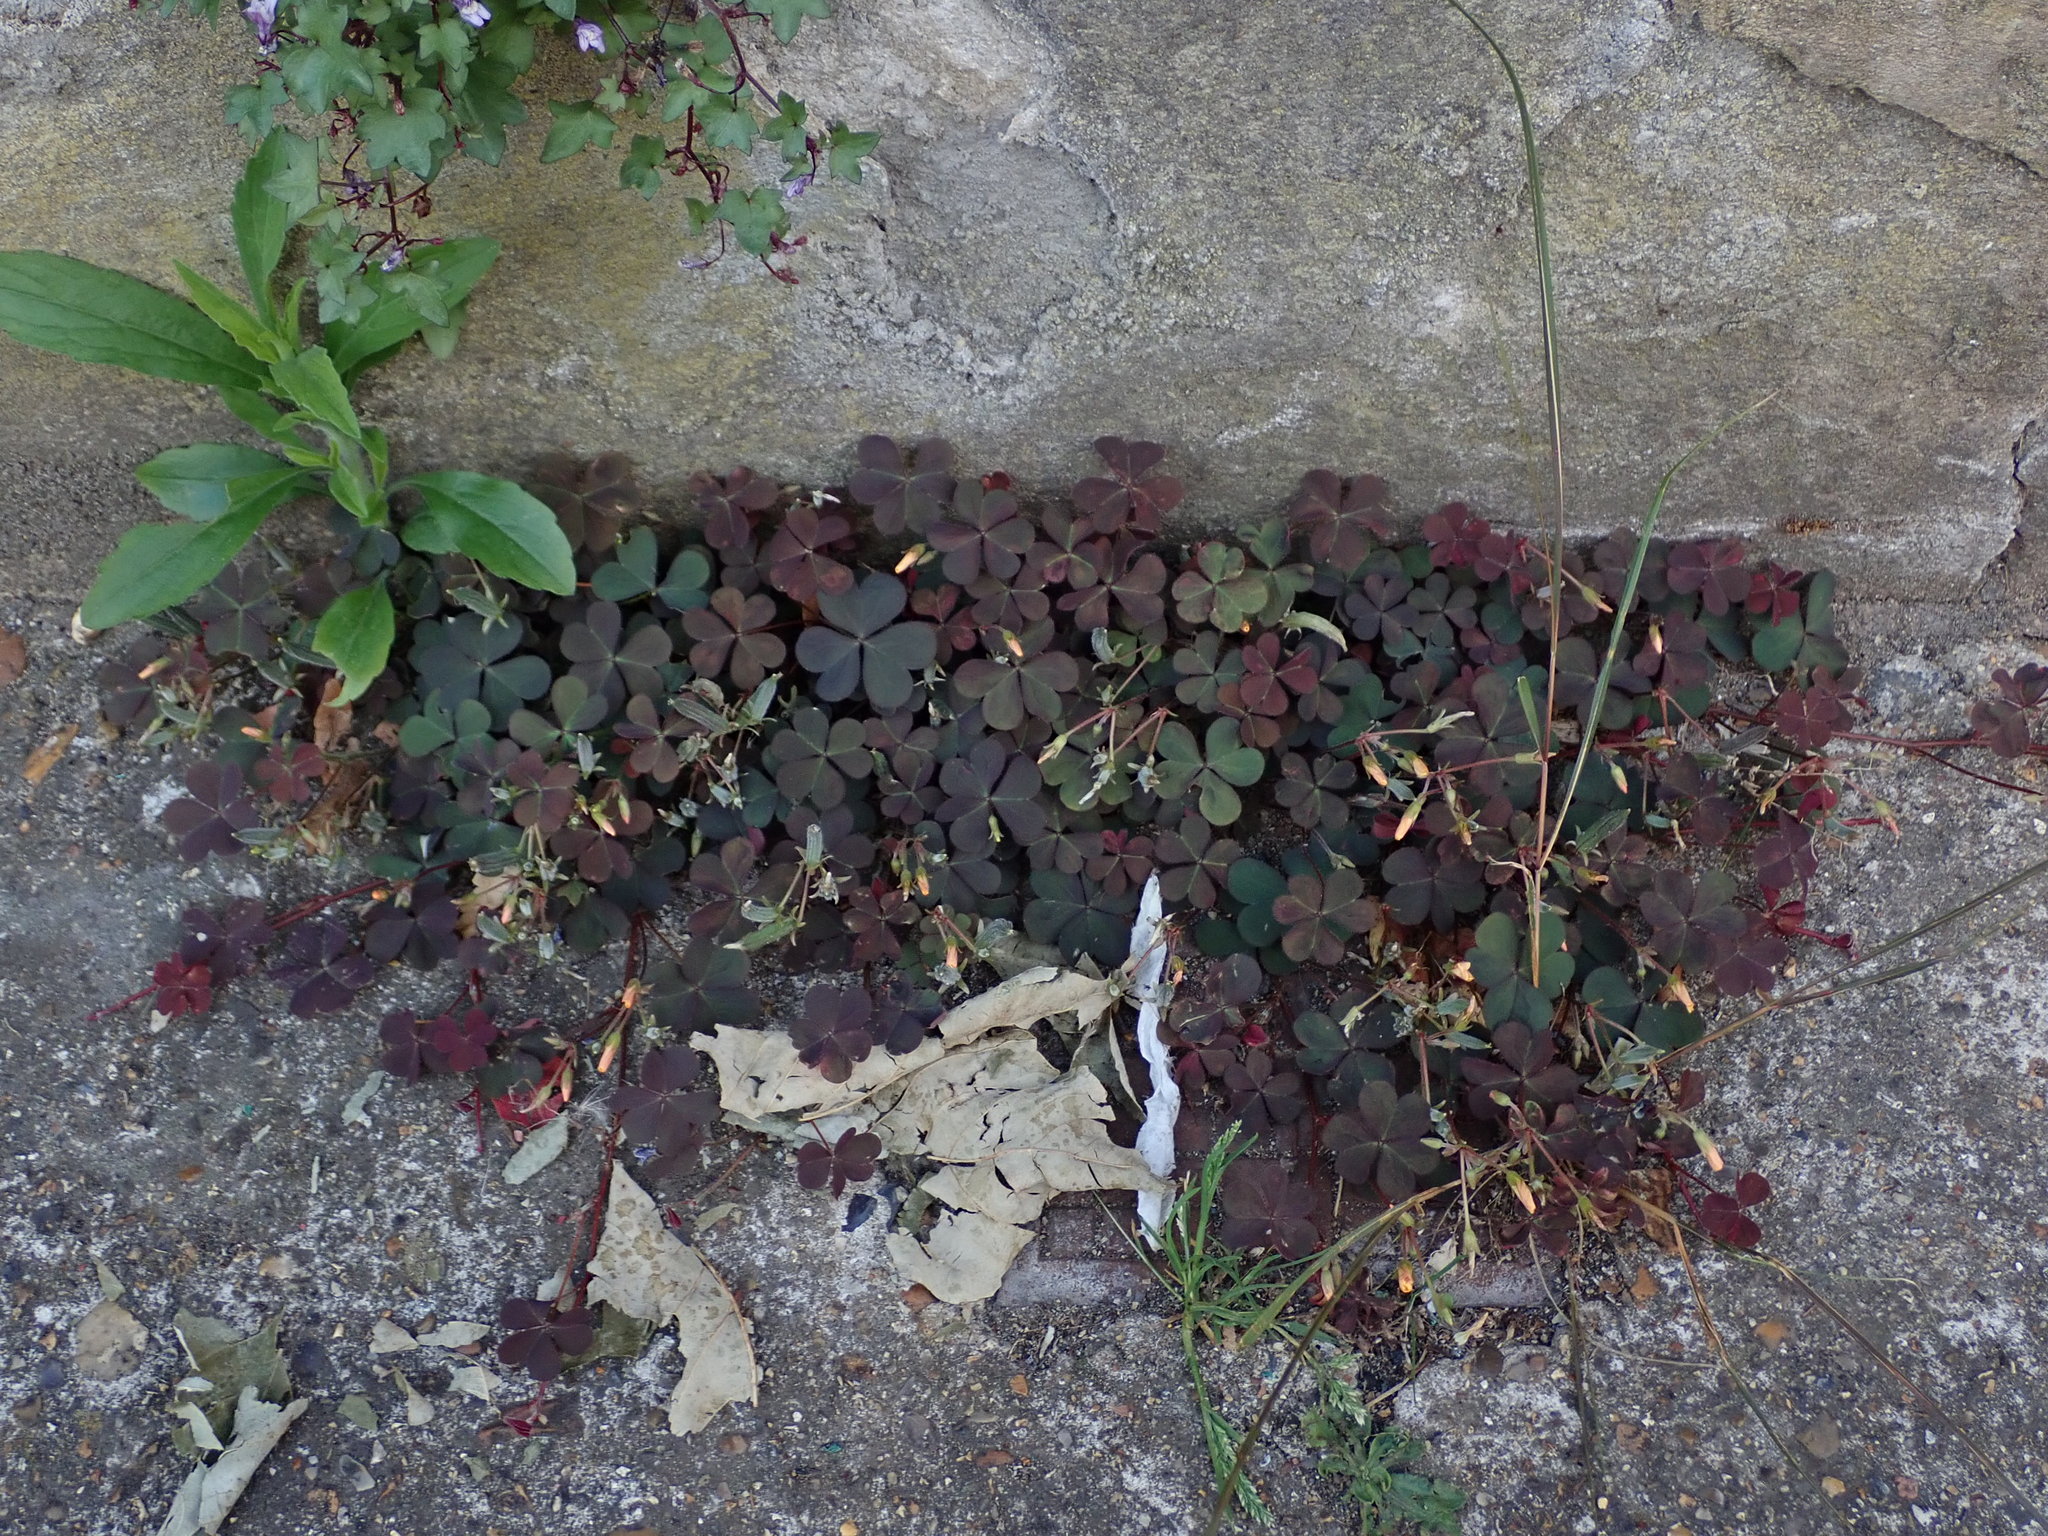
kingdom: Plantae
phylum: Tracheophyta
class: Magnoliopsida
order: Oxalidales
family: Oxalidaceae
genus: Oxalis
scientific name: Oxalis corniculata
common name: Procumbent yellow-sorrel
